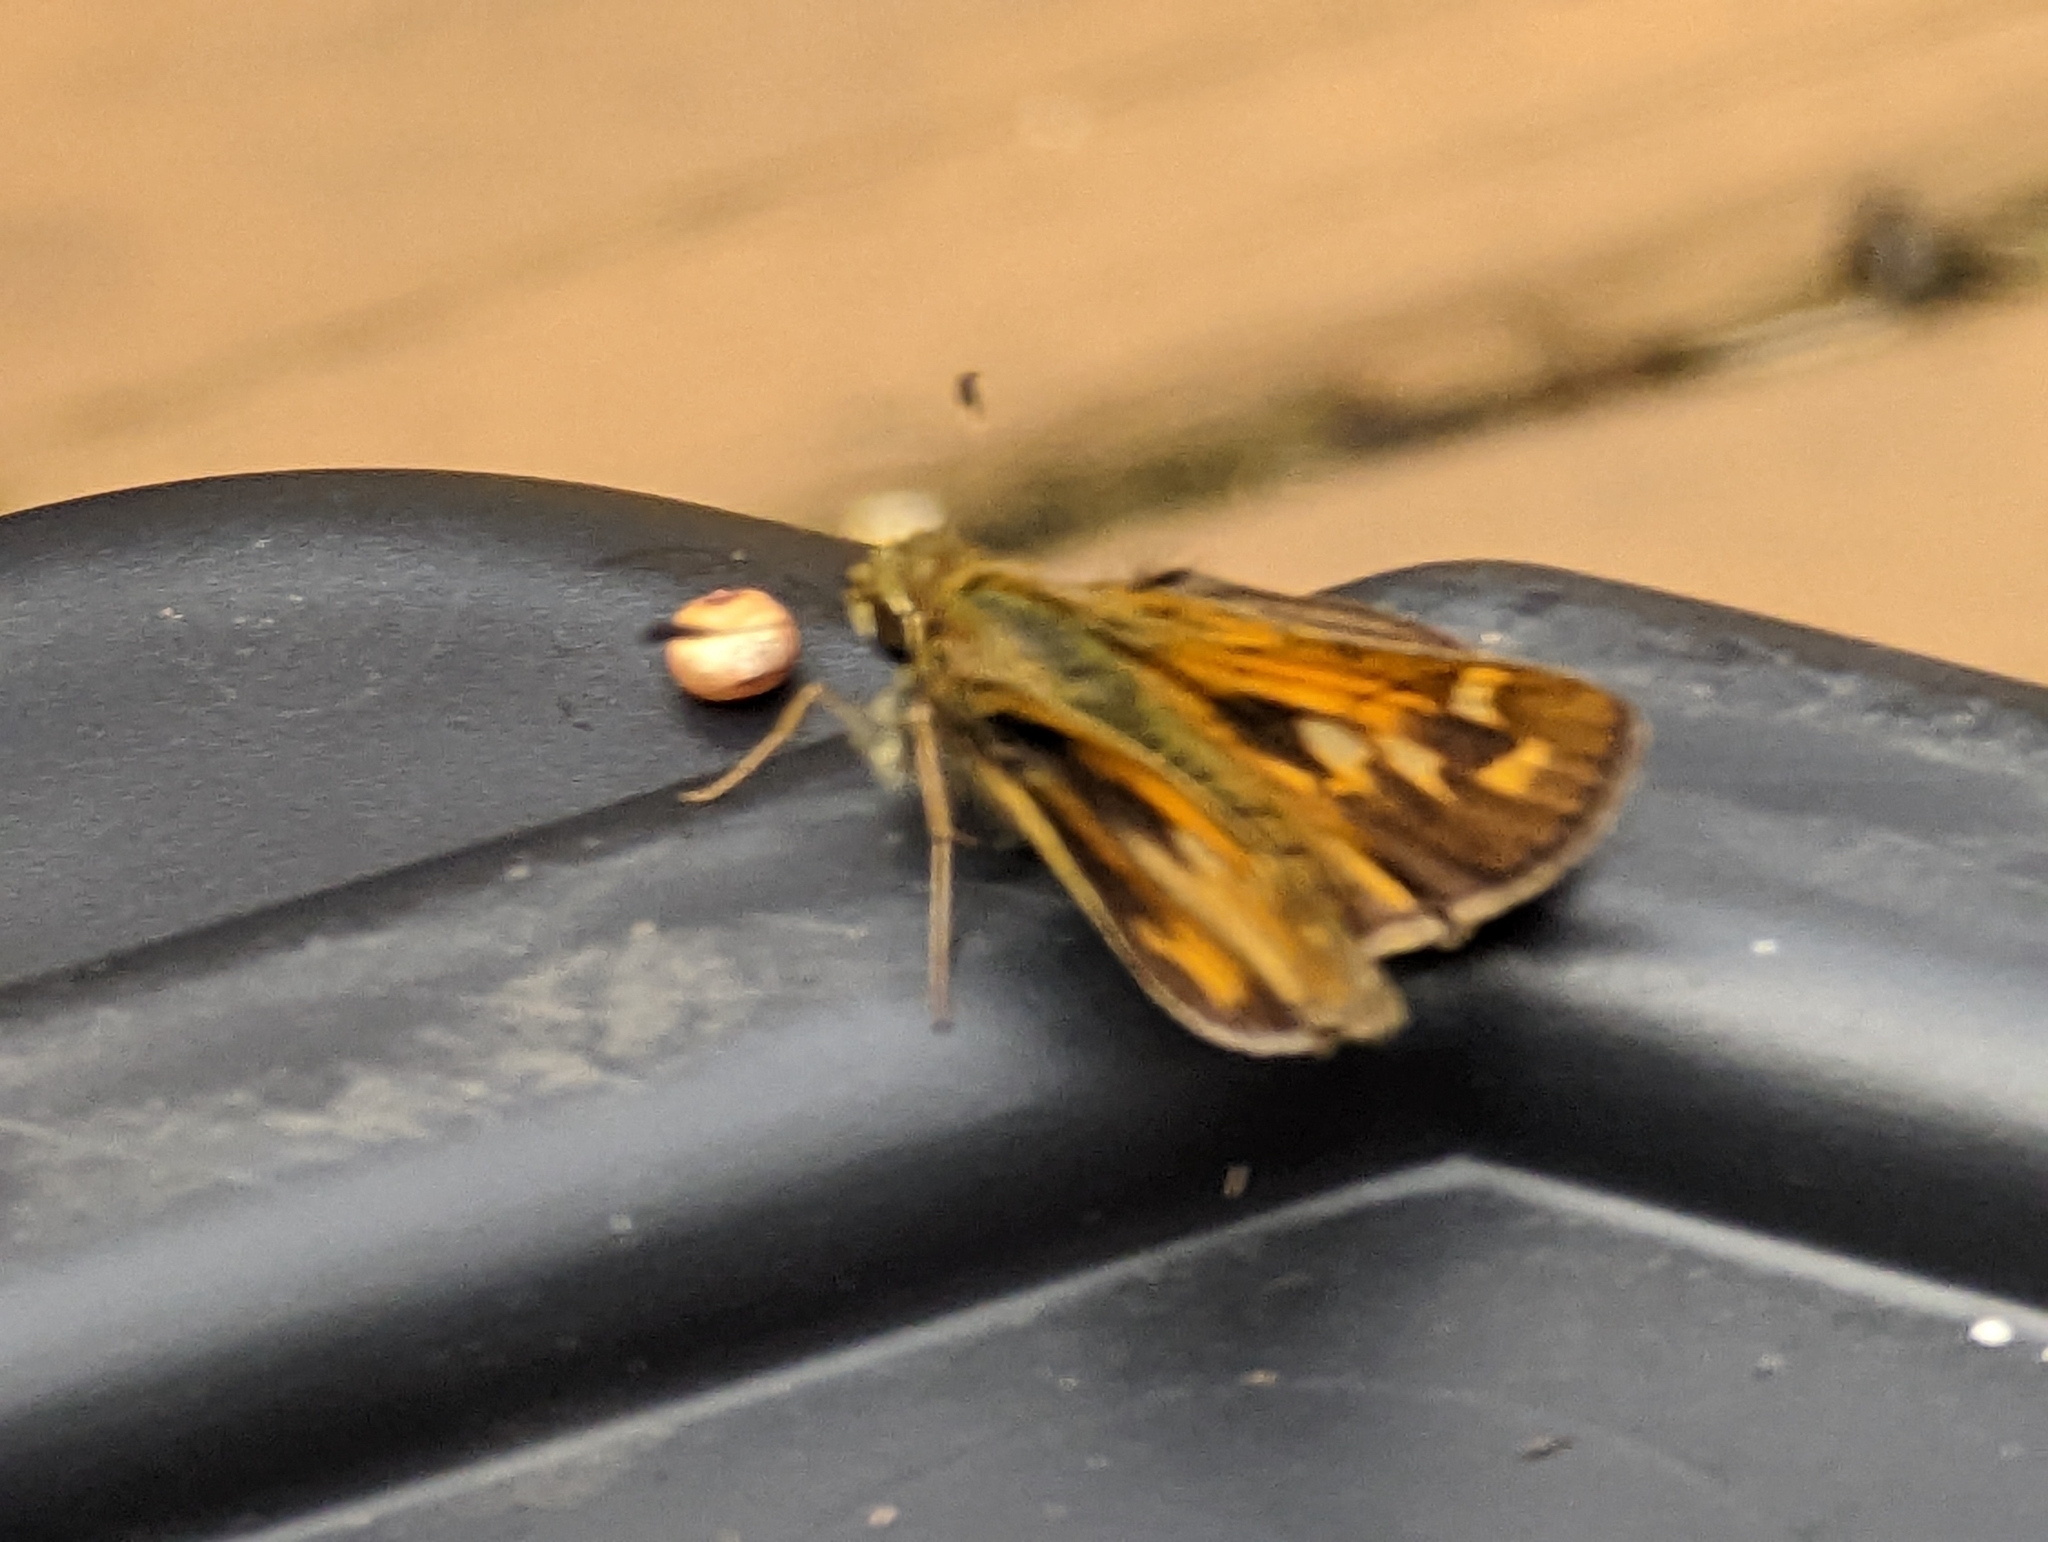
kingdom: Animalia
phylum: Arthropoda
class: Insecta
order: Lepidoptera
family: Hesperiidae
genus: Atalopedes
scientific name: Atalopedes
